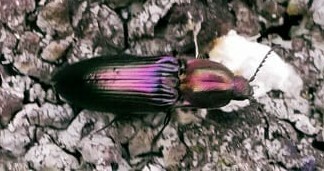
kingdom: Animalia
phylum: Arthropoda
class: Insecta
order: Coleoptera
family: Elateridae
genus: Ctenicera
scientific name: Ctenicera cuprea
